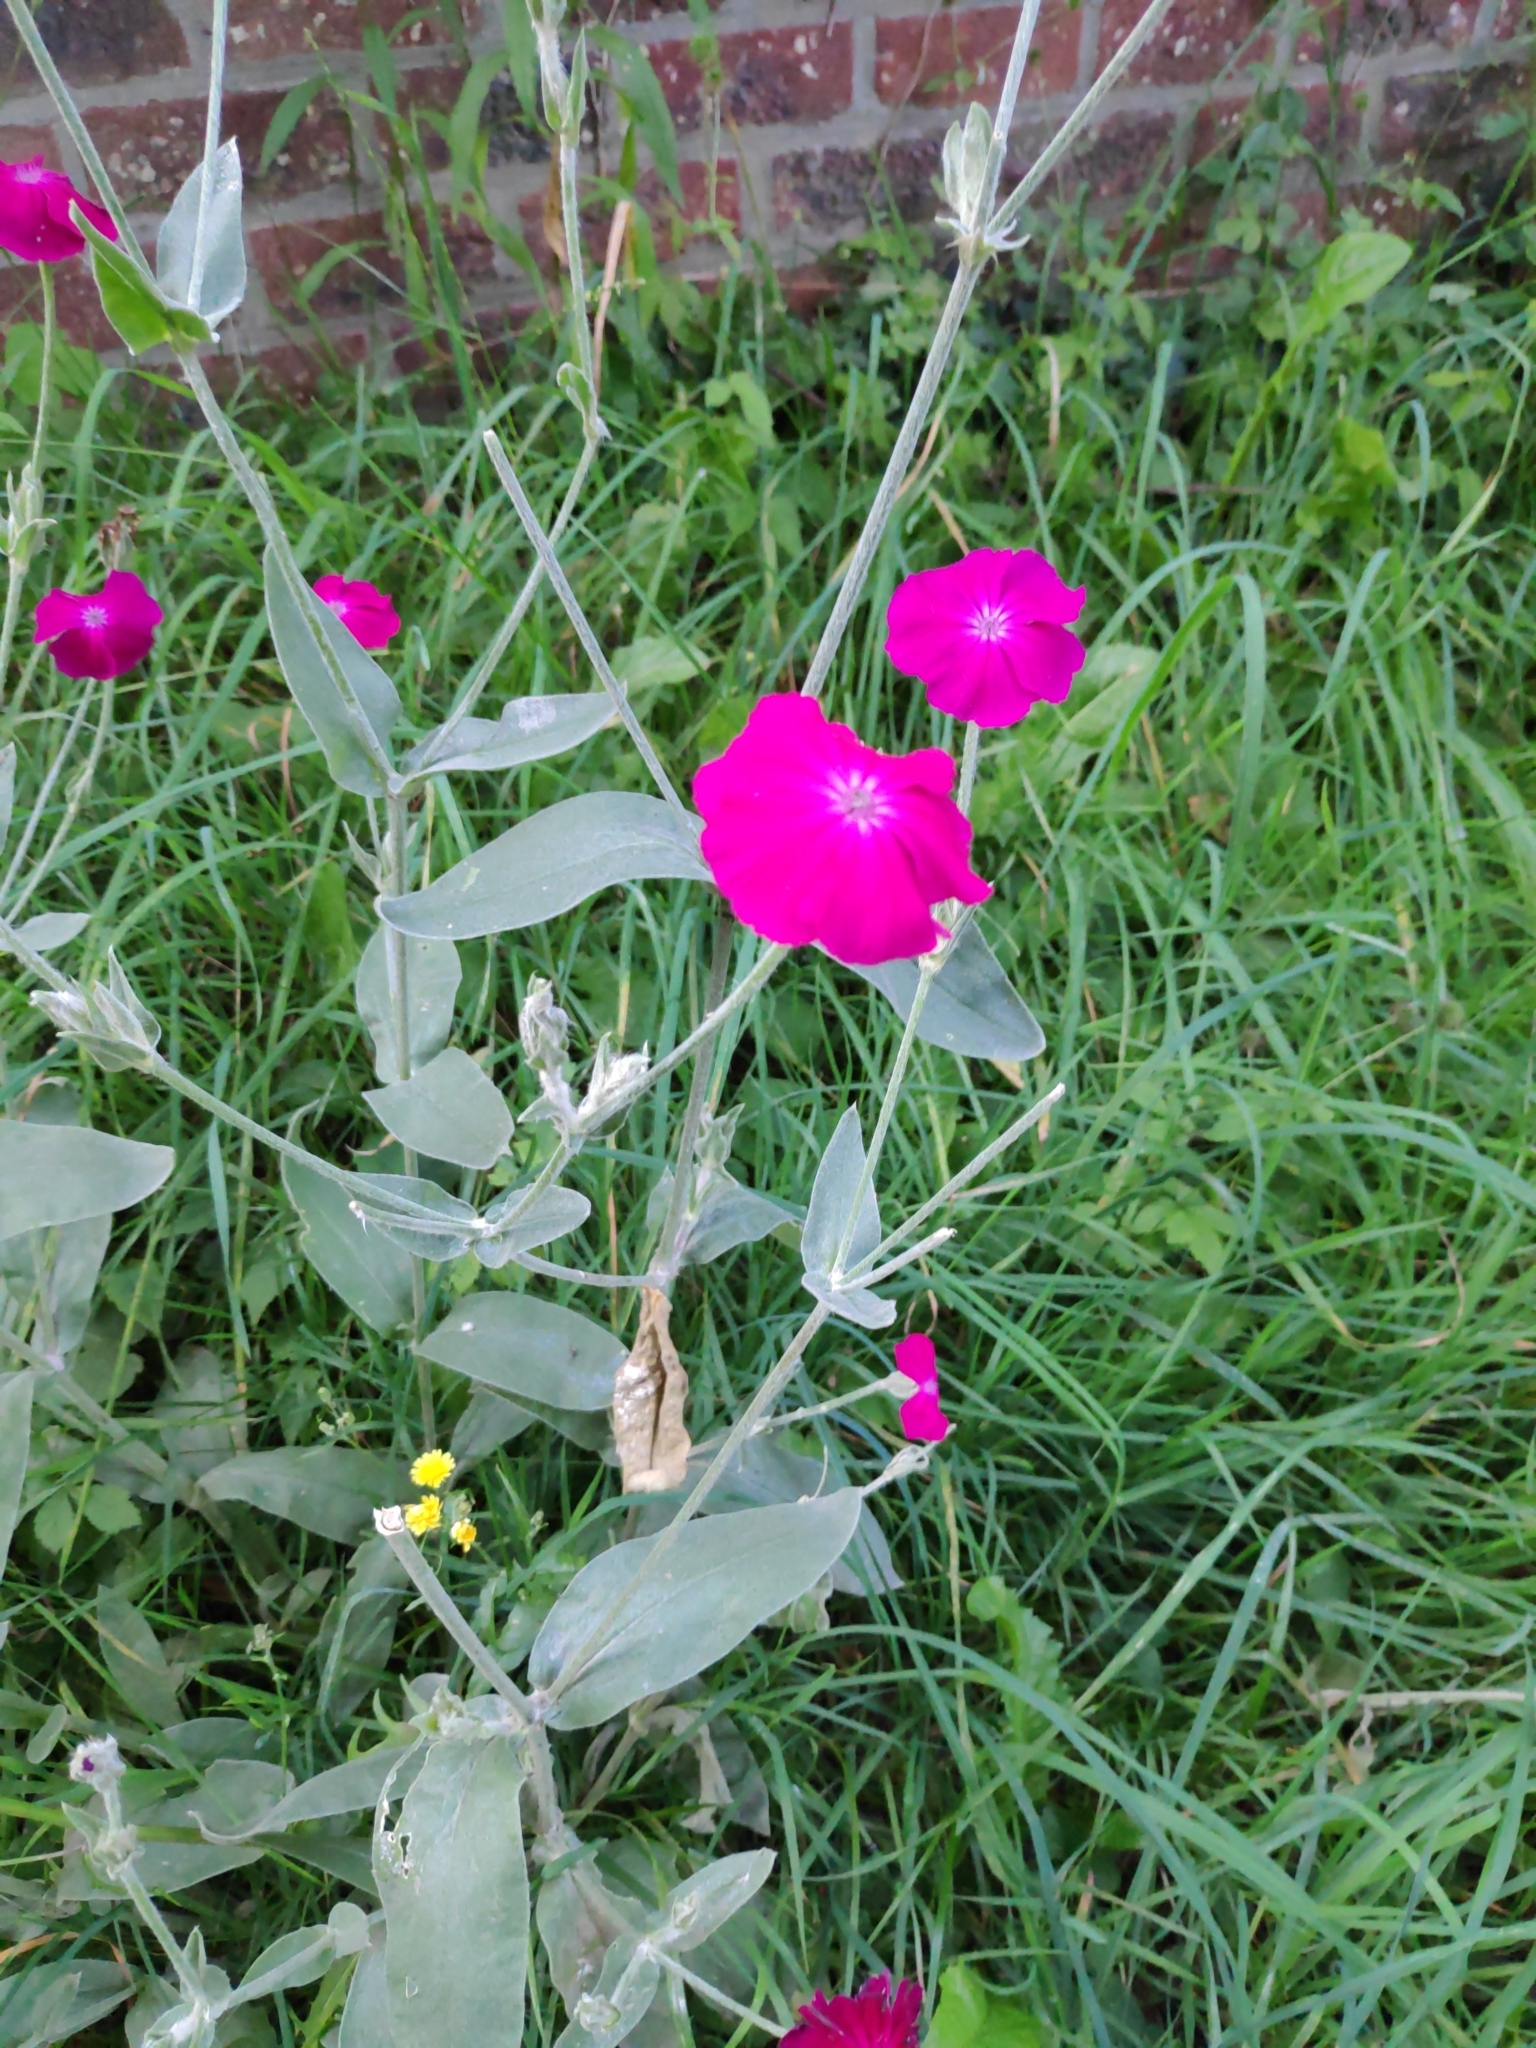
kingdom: Plantae
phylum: Tracheophyta
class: Magnoliopsida
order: Caryophyllales
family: Caryophyllaceae
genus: Silene
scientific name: Silene coronaria
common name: Rose campion
